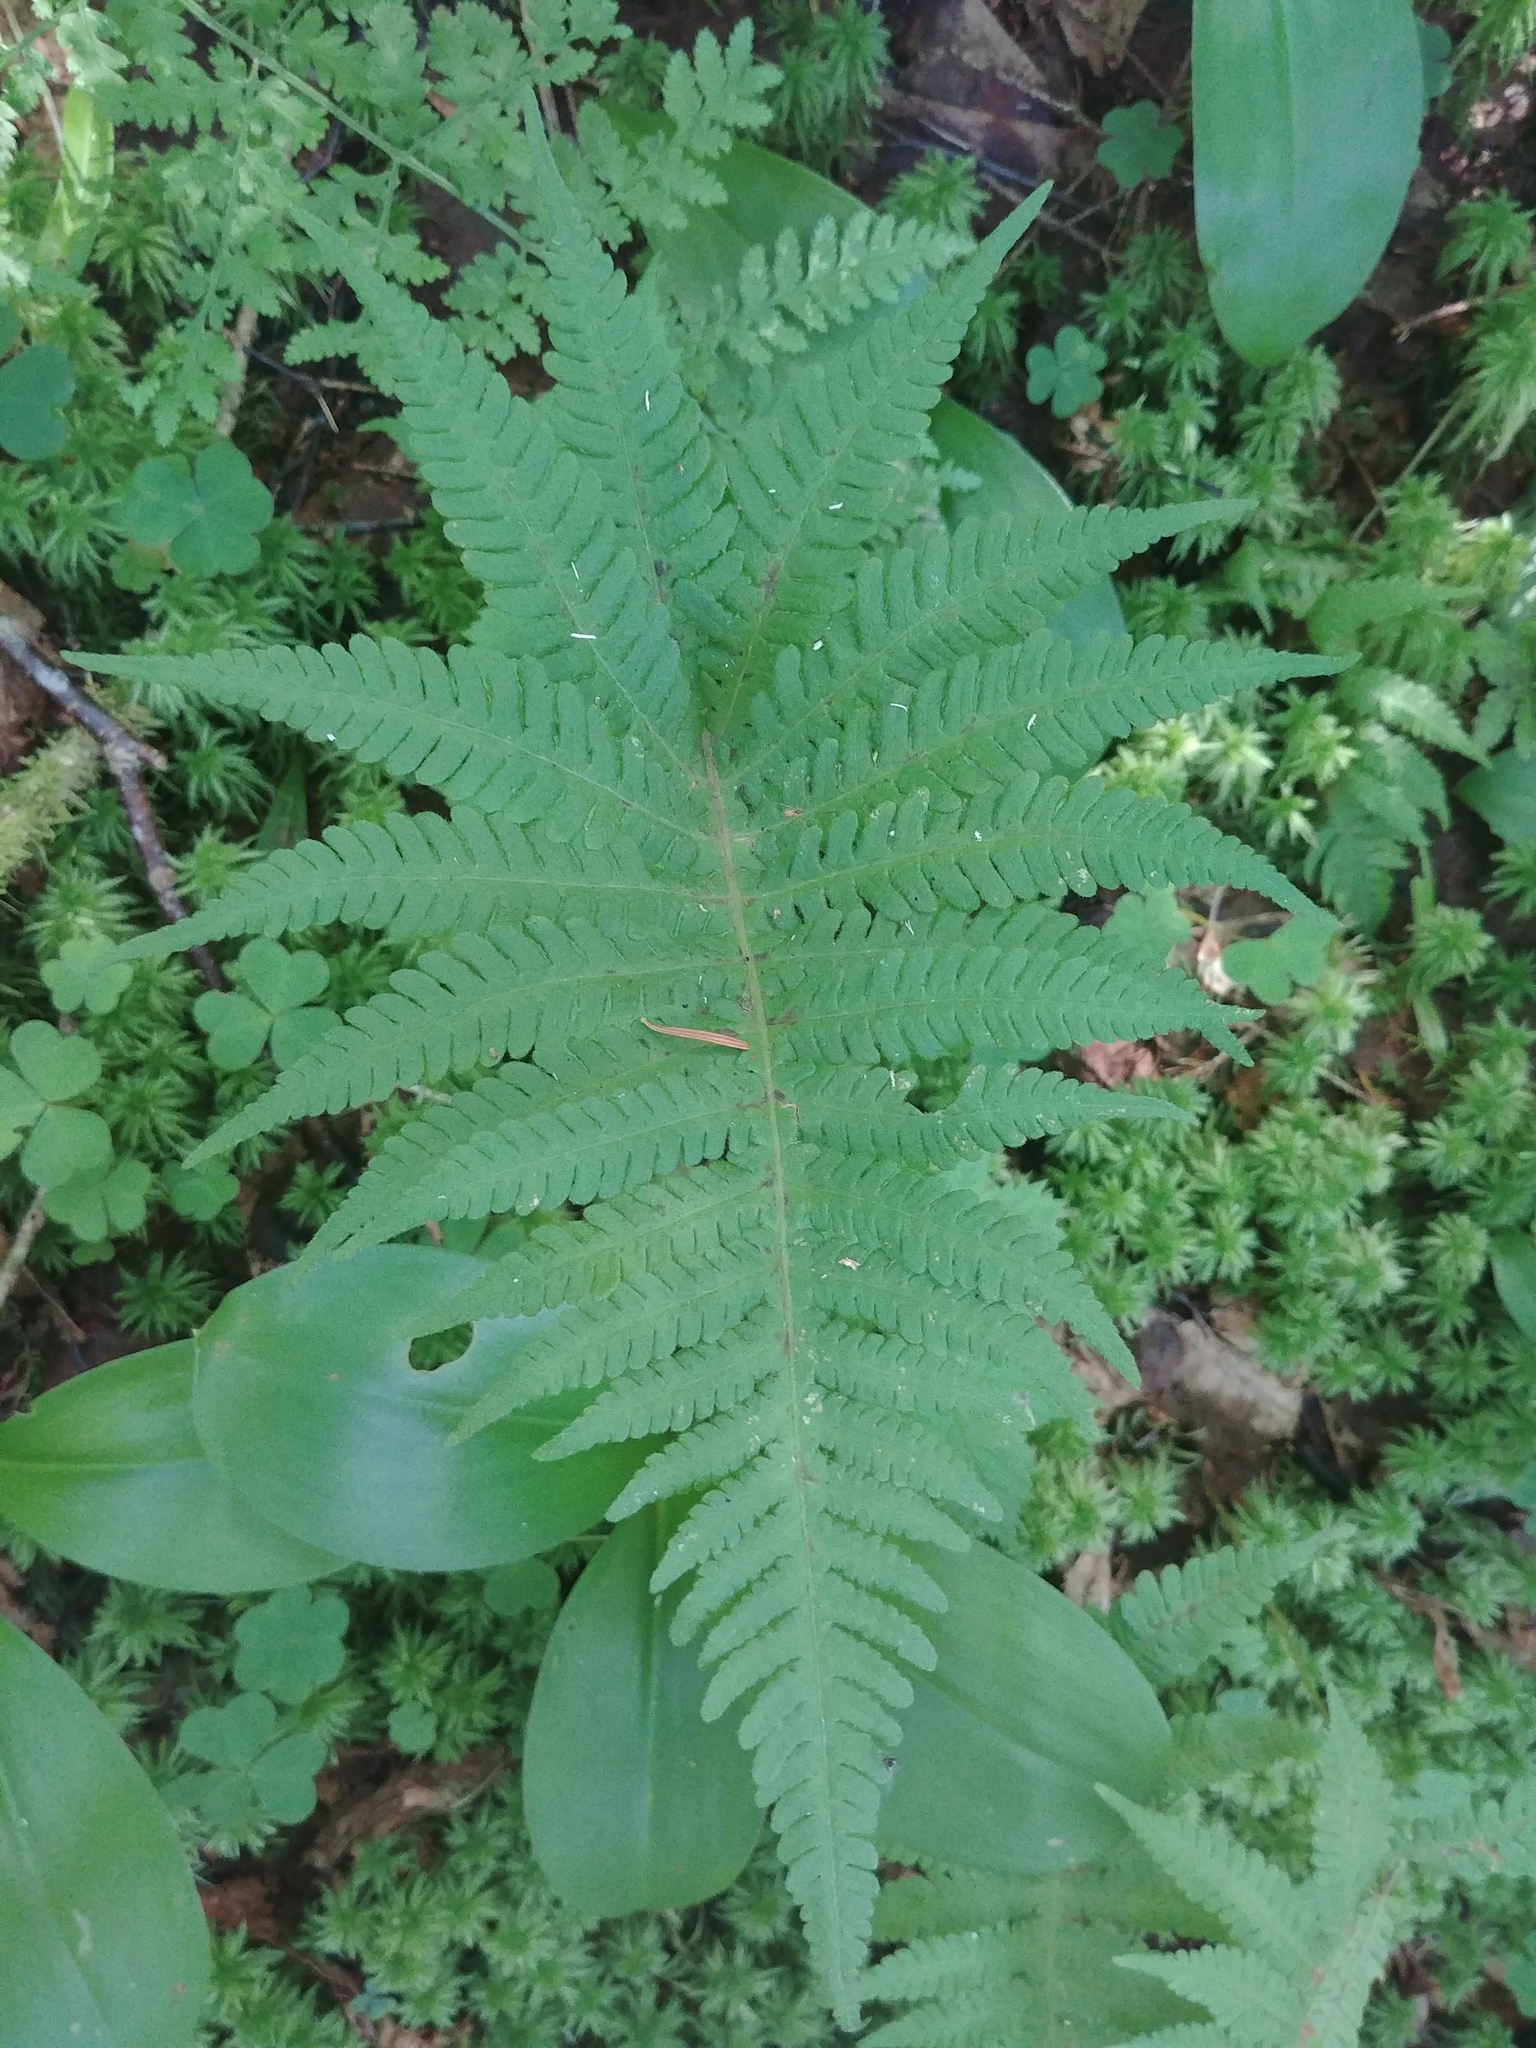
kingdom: Plantae
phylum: Tracheophyta
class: Polypodiopsida
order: Polypodiales
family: Thelypteridaceae
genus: Phegopteris
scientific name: Phegopteris connectilis
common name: Beech fern
